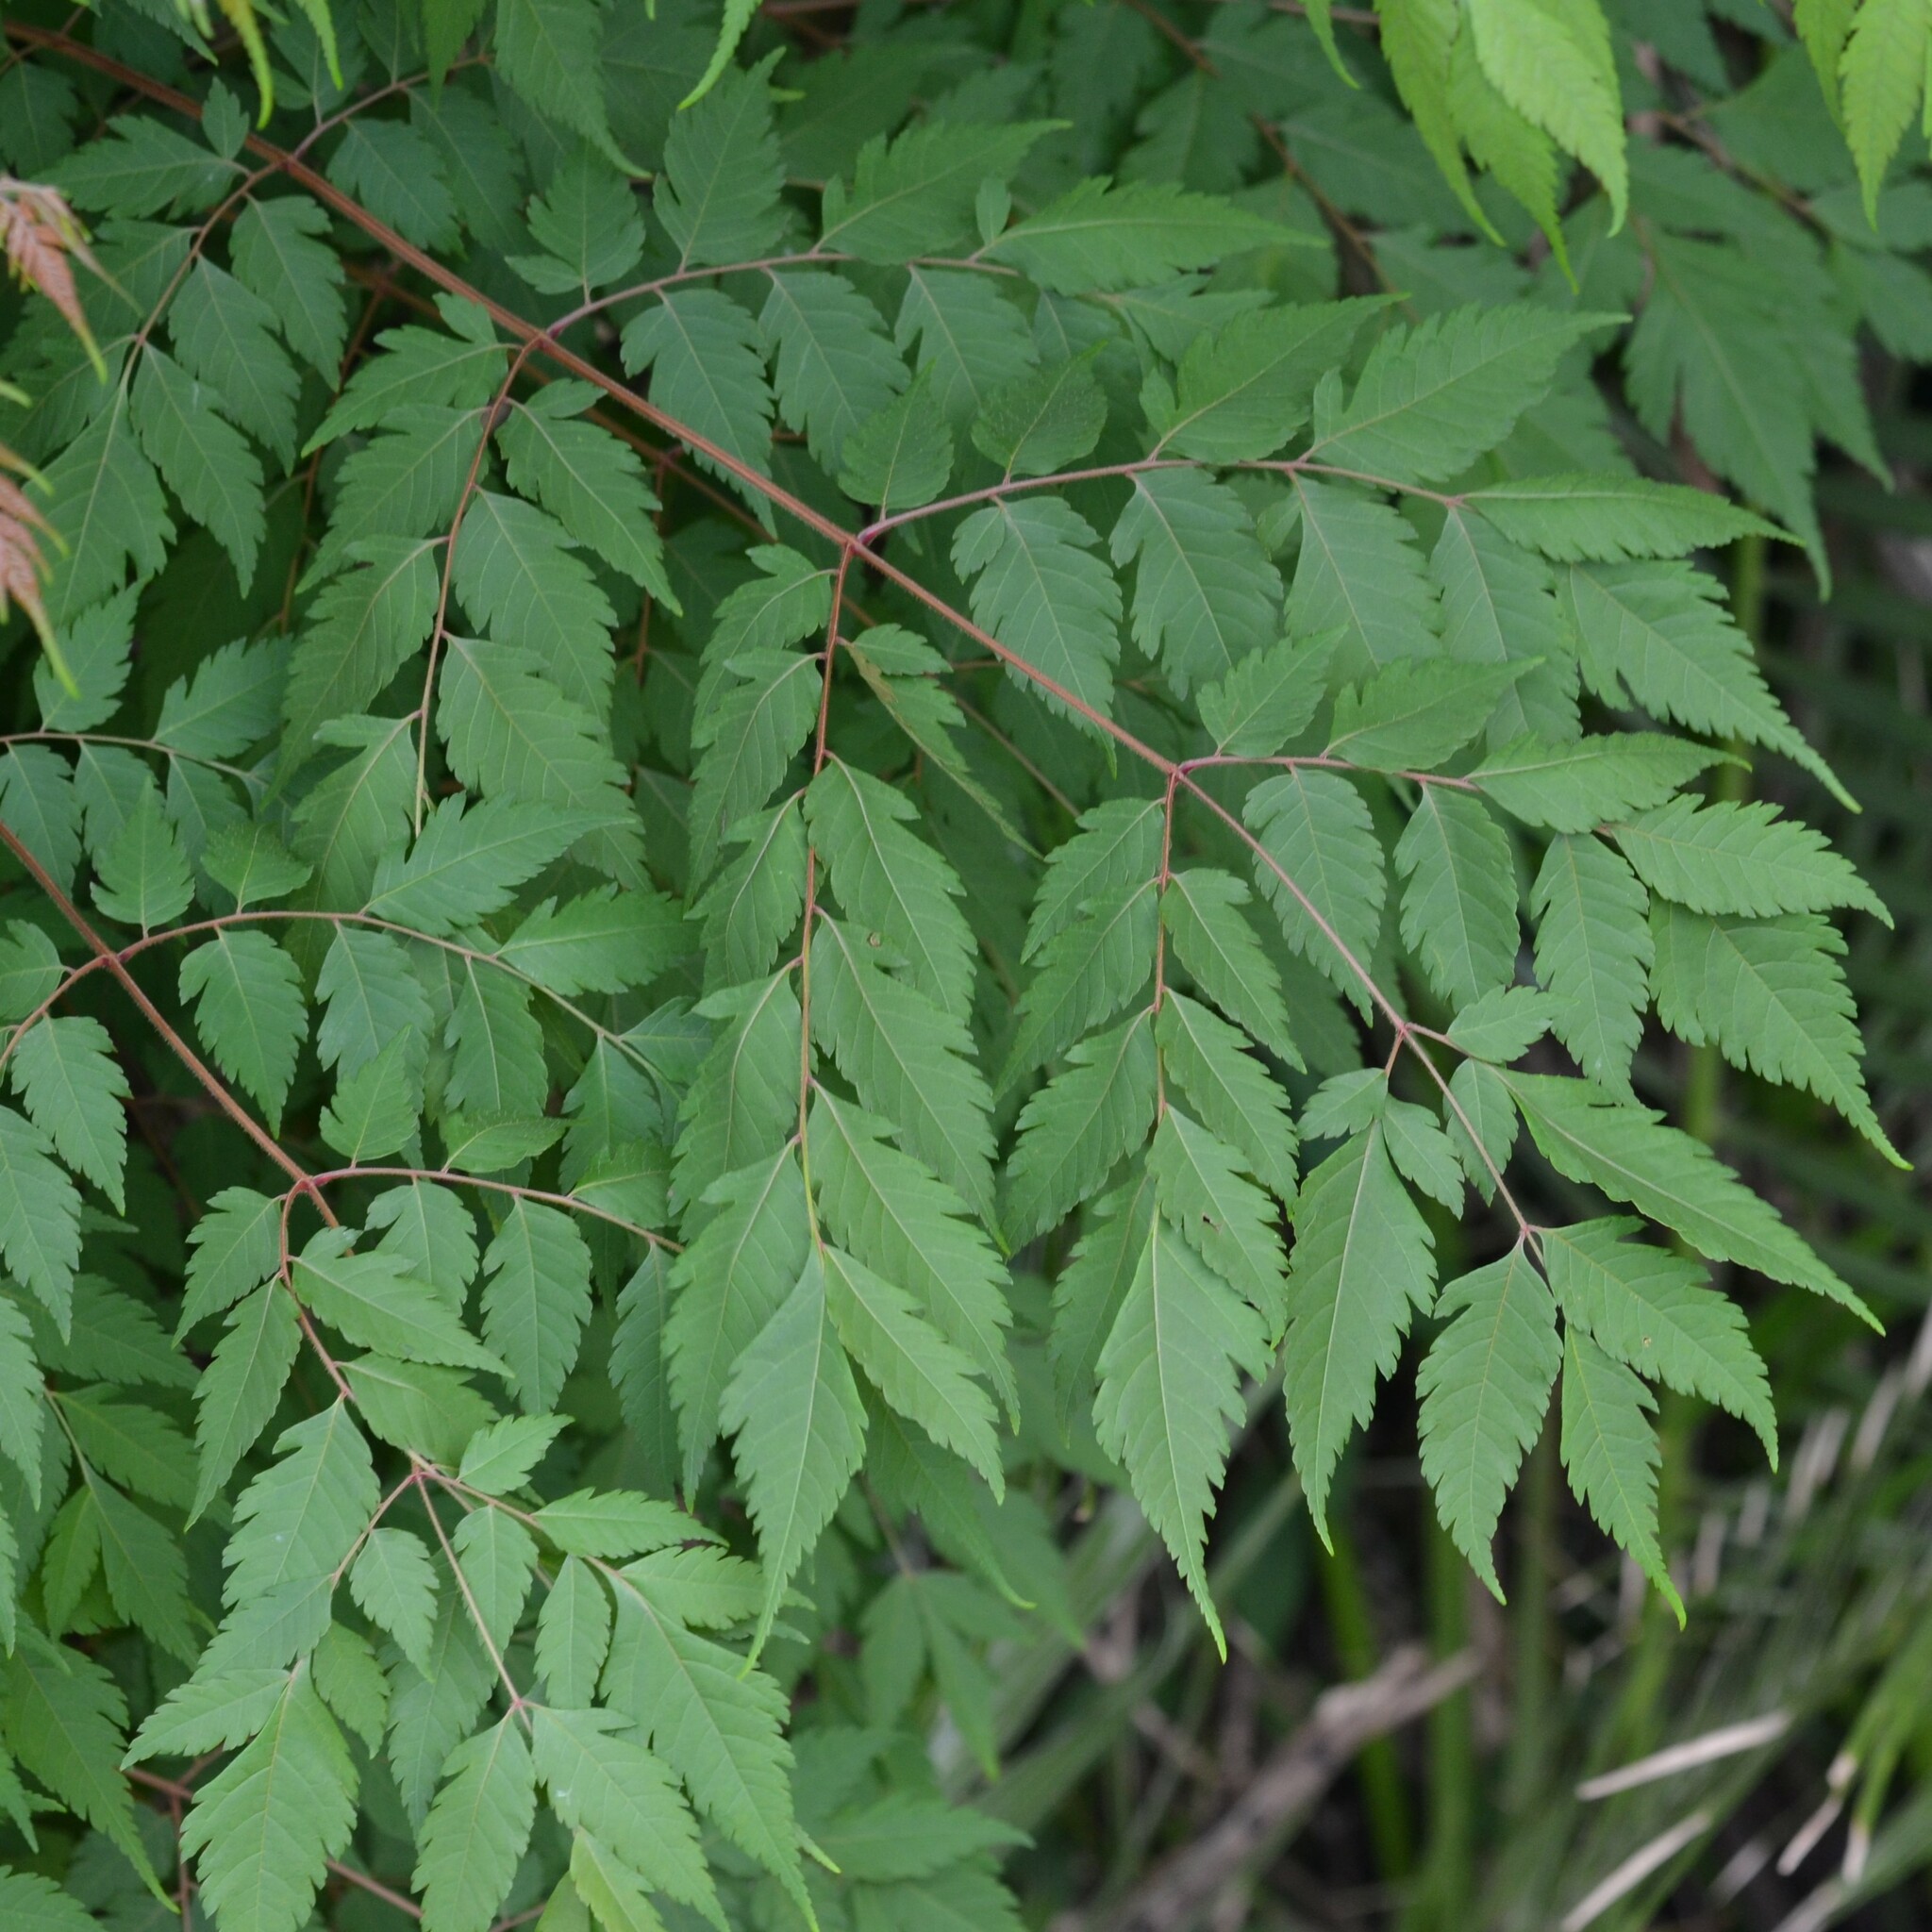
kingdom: Plantae
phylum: Tracheophyta
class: Magnoliopsida
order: Sapindales
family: Sapindaceae
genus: Koelreuteria
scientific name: Koelreuteria elegans
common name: Chinese flame tree
